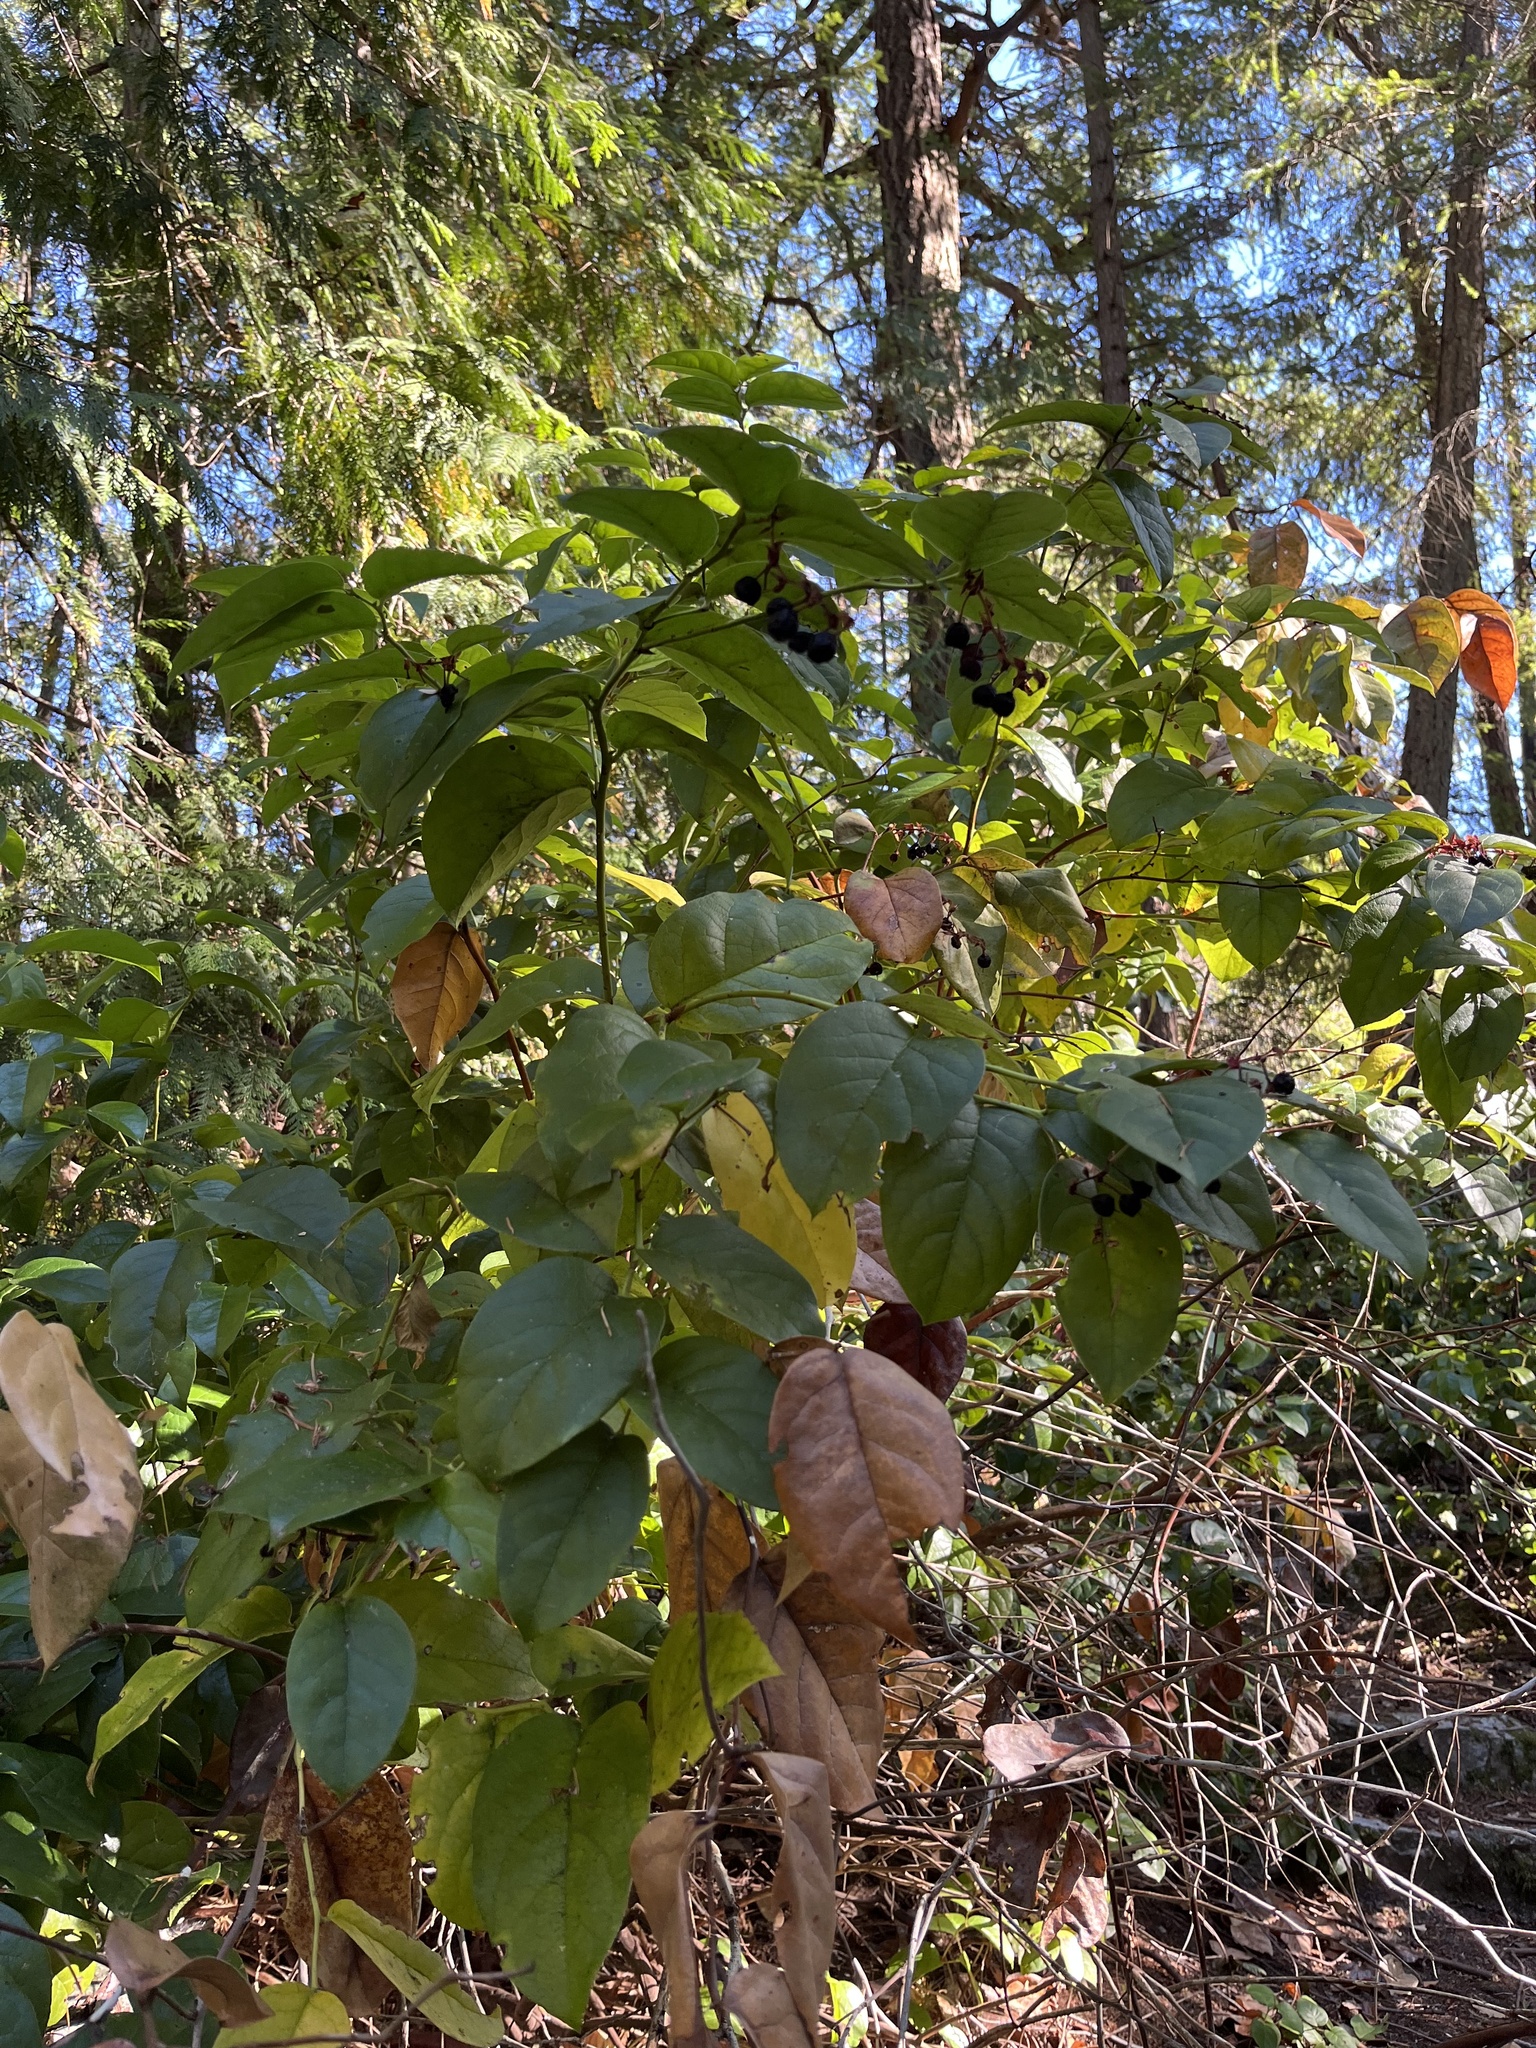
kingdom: Plantae
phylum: Tracheophyta
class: Magnoliopsida
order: Ericales
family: Ericaceae
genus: Gaultheria
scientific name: Gaultheria shallon
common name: Shallon
